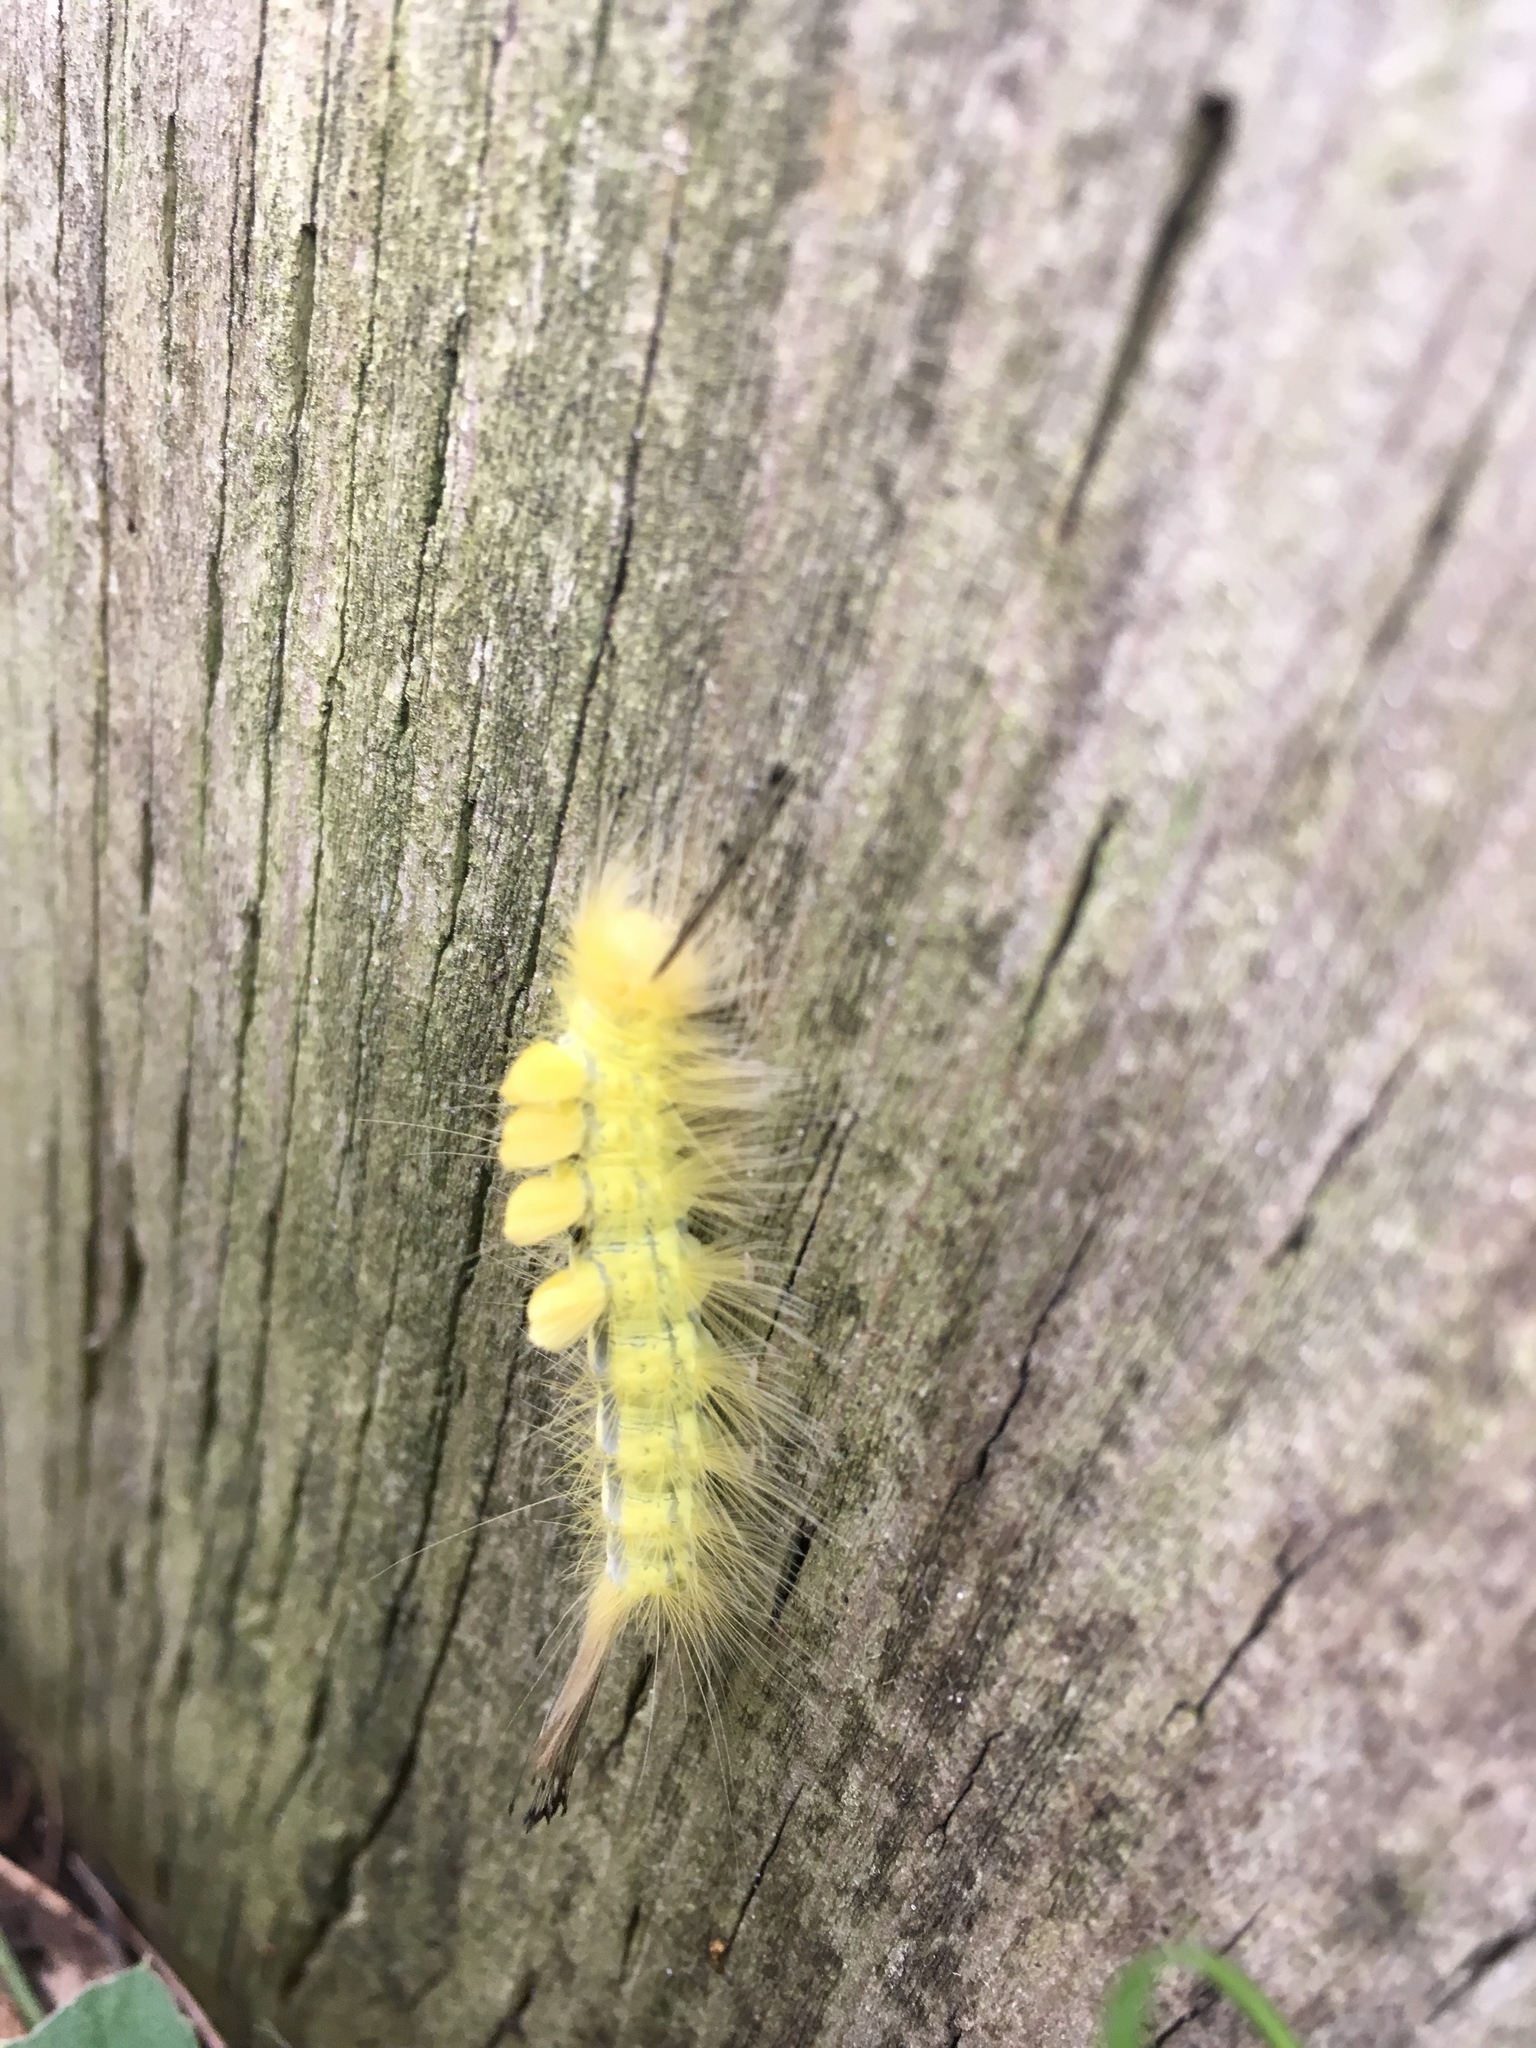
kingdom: Animalia
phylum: Arthropoda
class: Insecta
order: Lepidoptera
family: Erebidae
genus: Orgyia
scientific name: Orgyia definita
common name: Definite tussock moth
